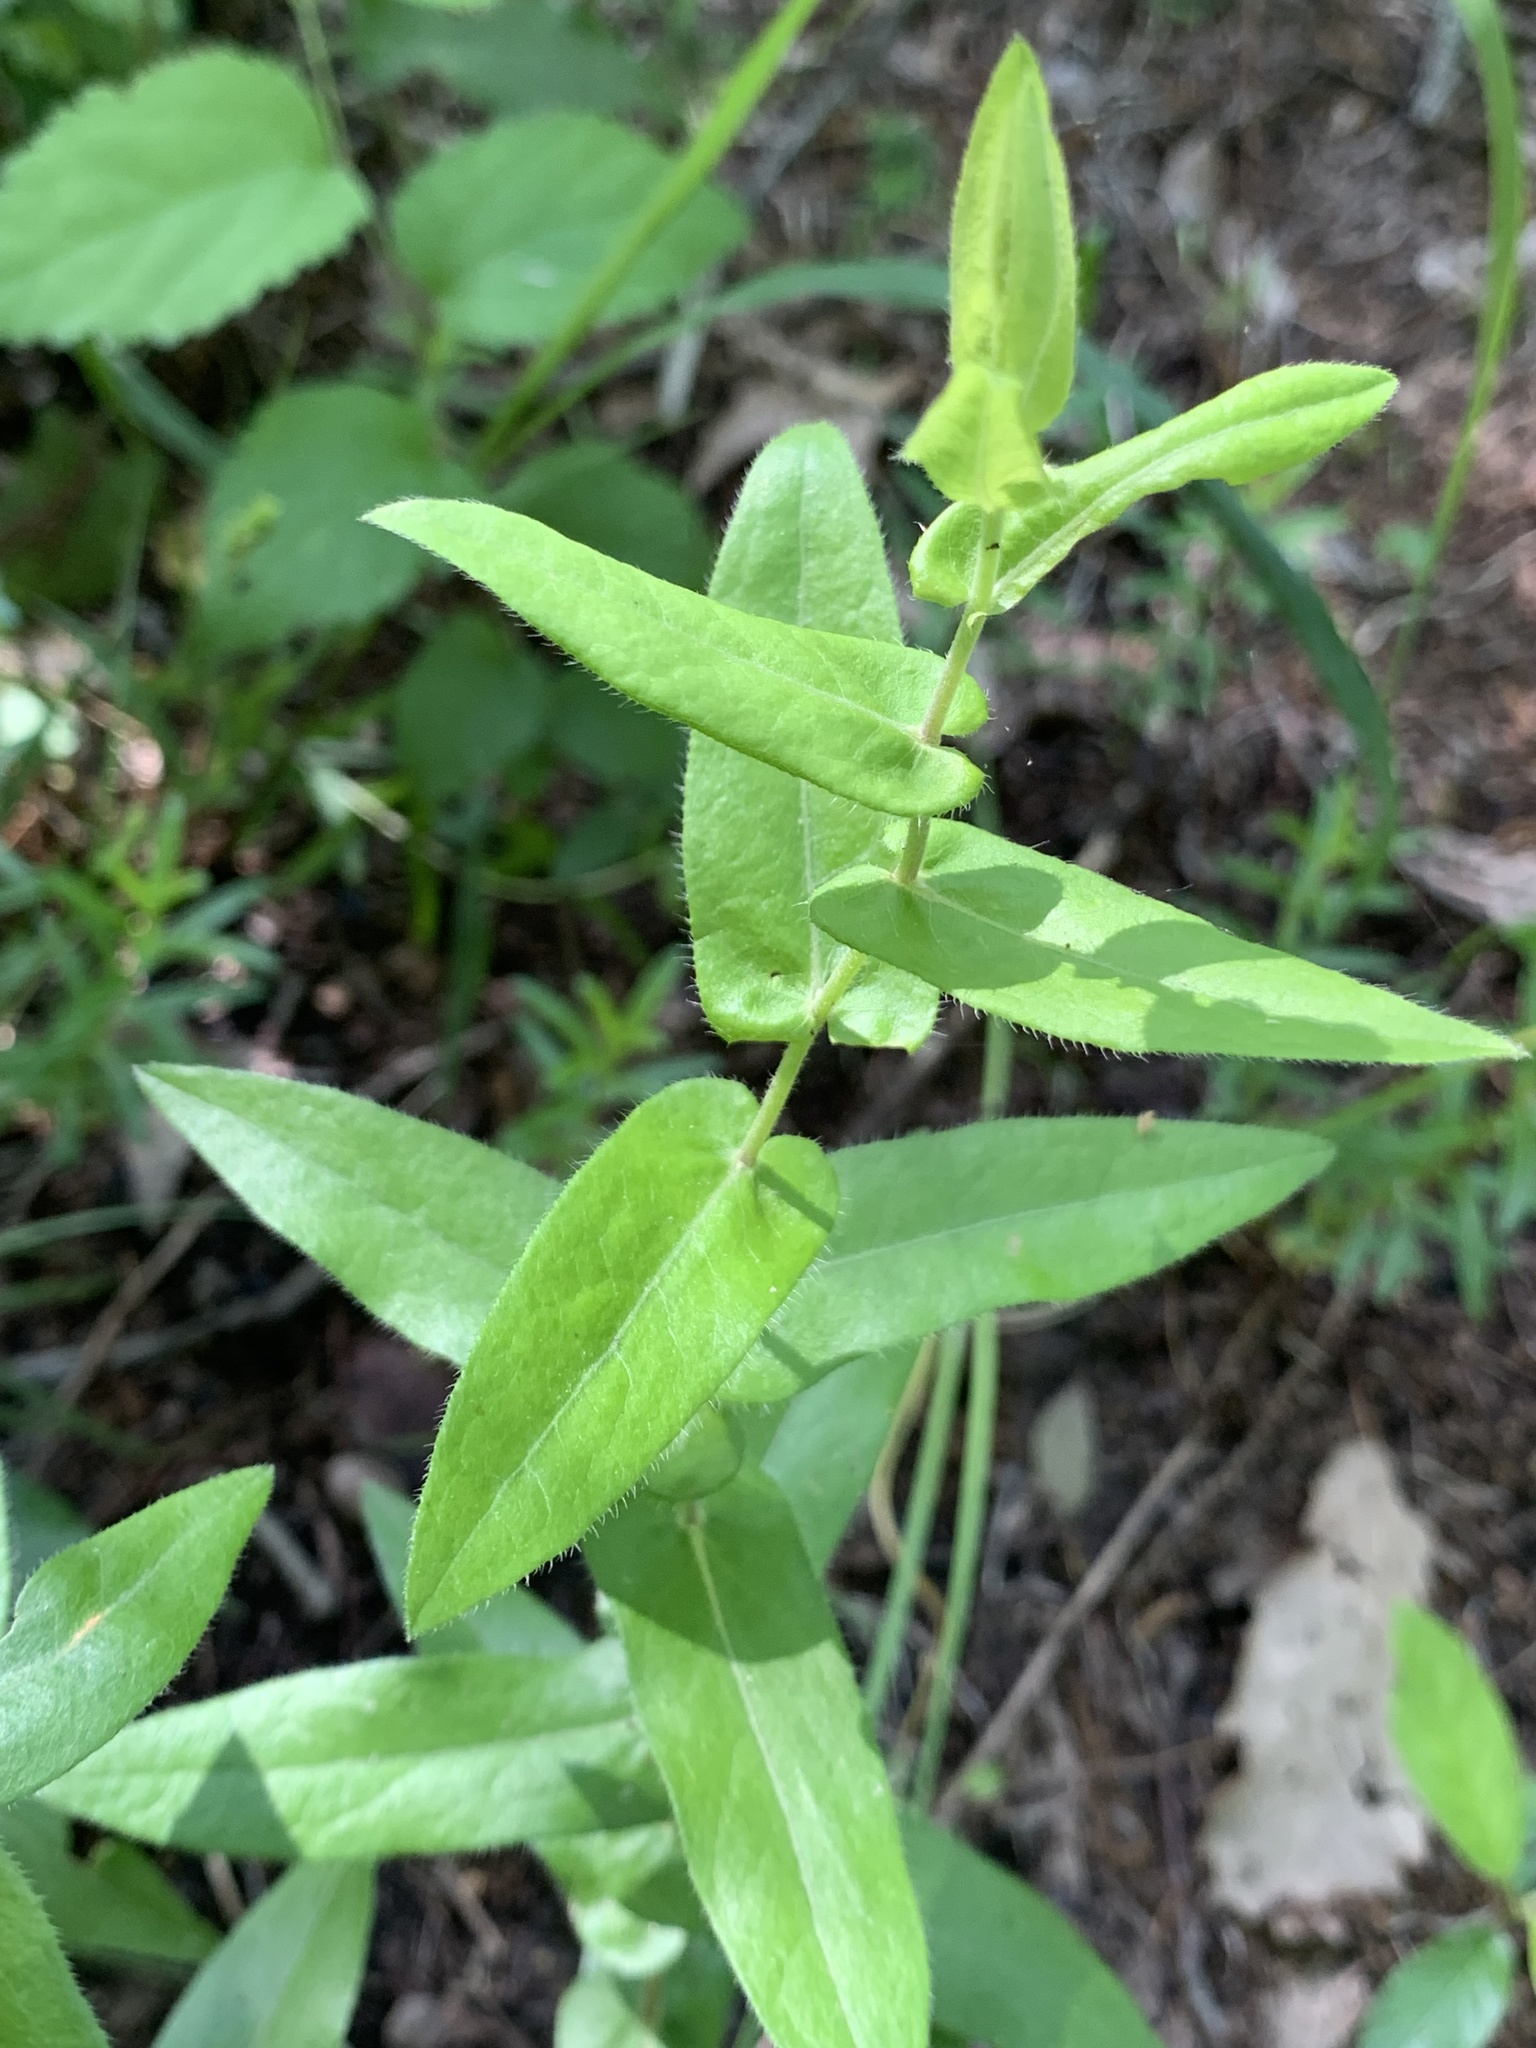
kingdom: Plantae
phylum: Tracheophyta
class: Magnoliopsida
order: Asterales
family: Asteraceae
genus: Symphyotrichum
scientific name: Symphyotrichum patens
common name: Late purple aster
